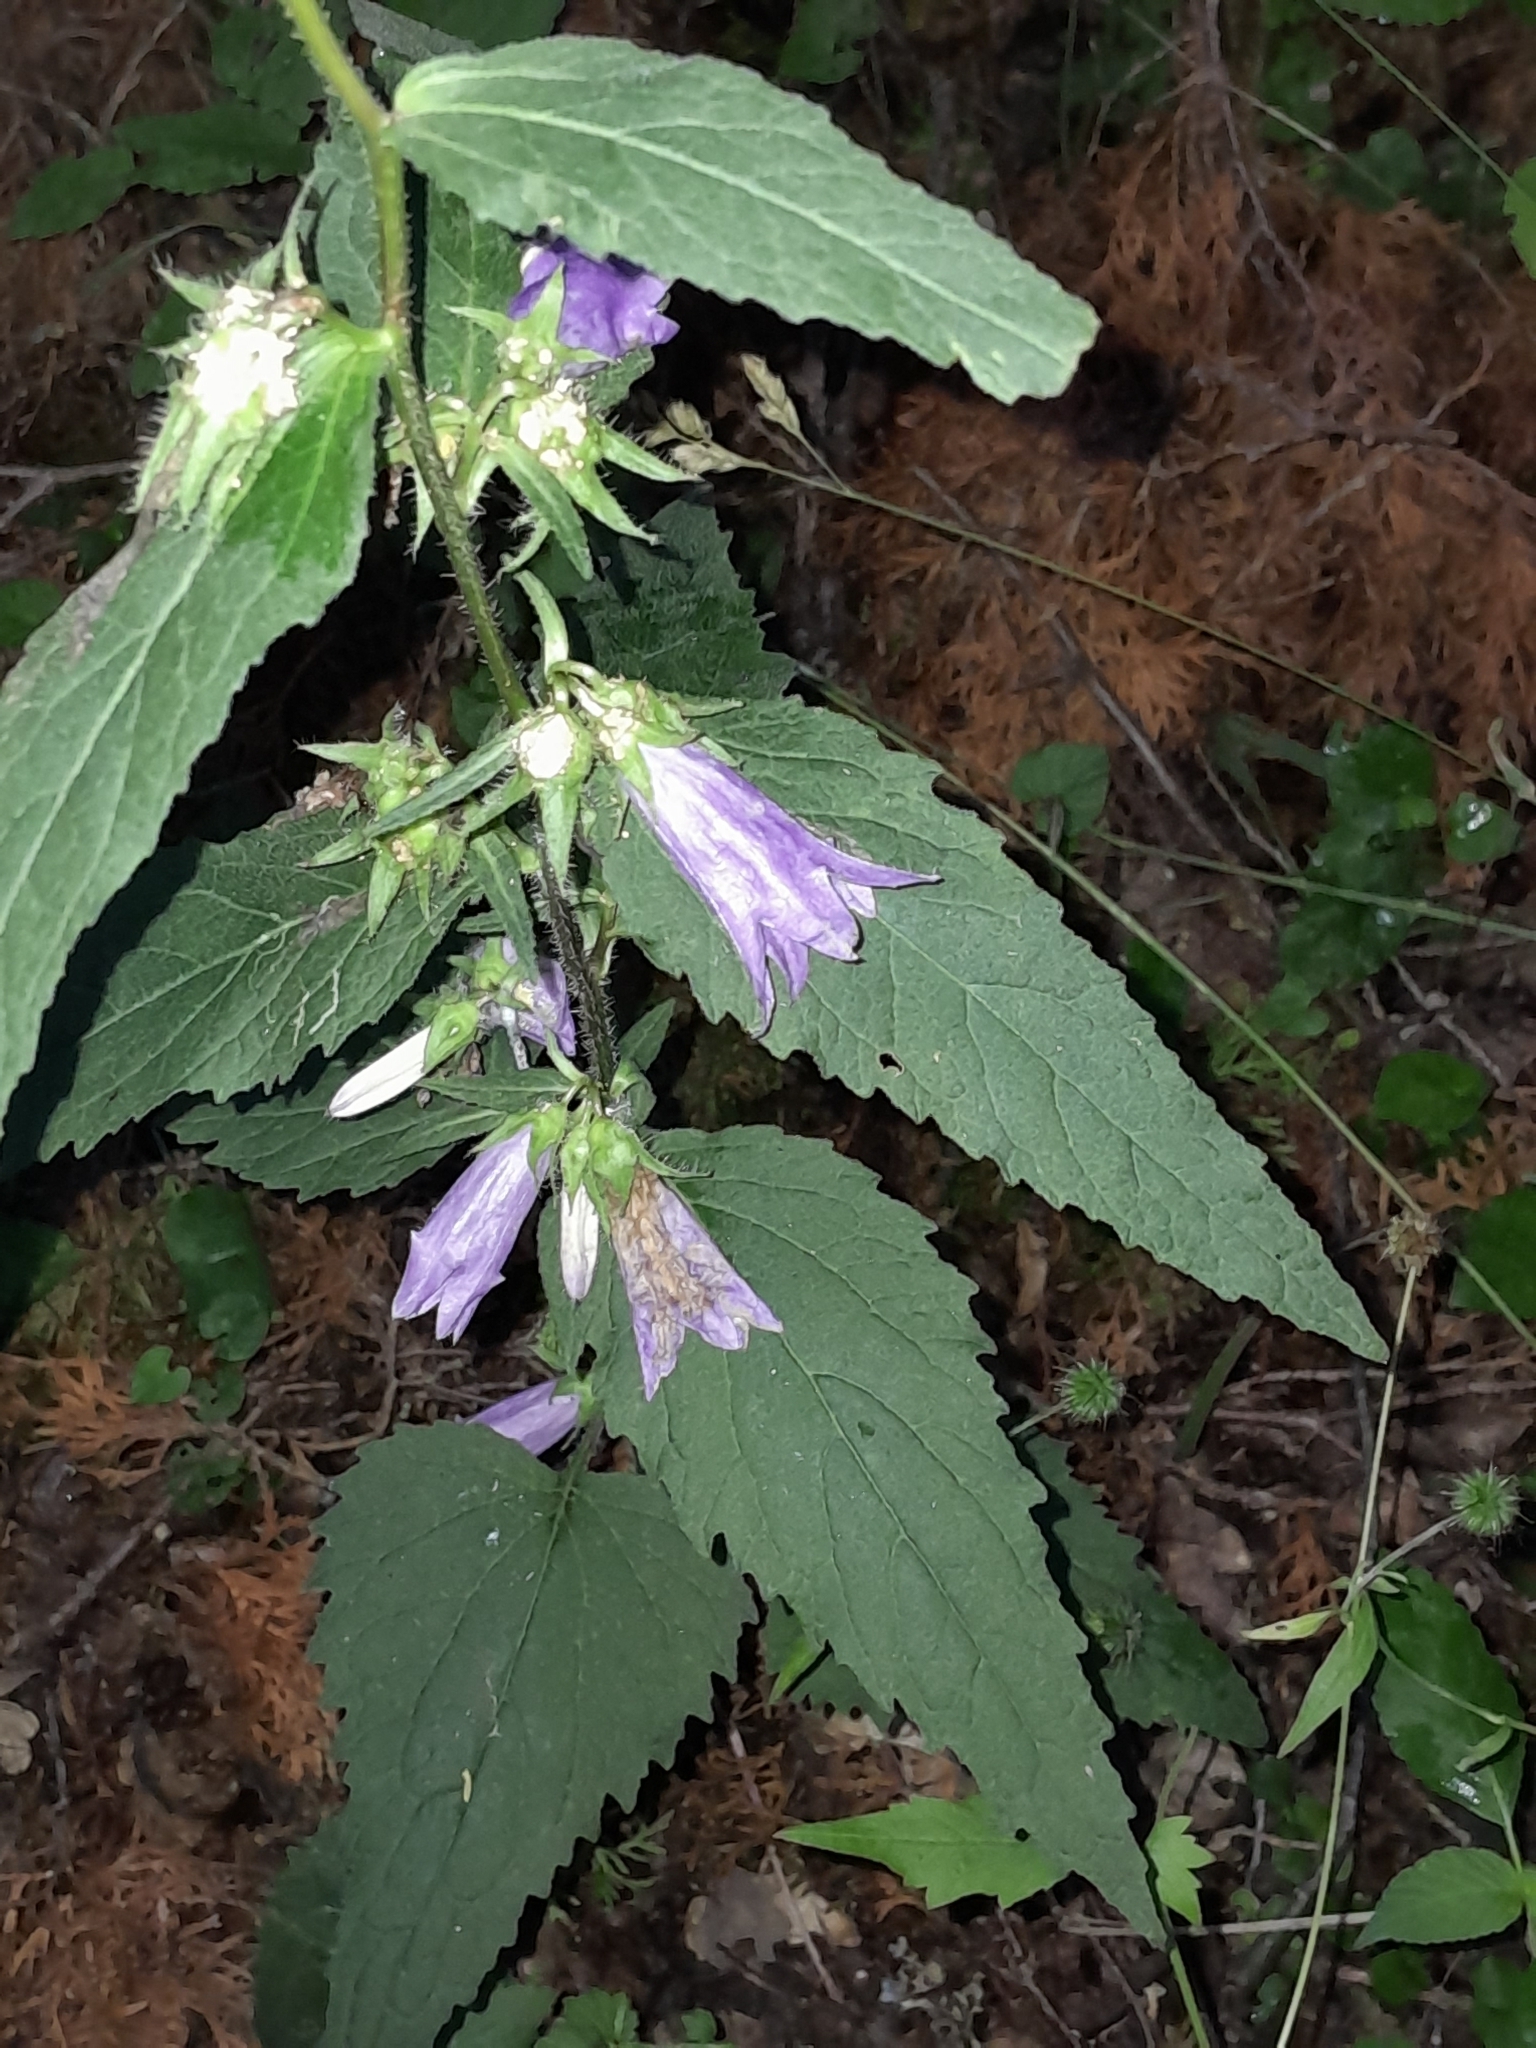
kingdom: Plantae
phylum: Tracheophyta
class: Magnoliopsida
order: Asterales
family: Campanulaceae
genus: Campanula
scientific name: Campanula trachelium
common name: Nettle-leaved bellflower
